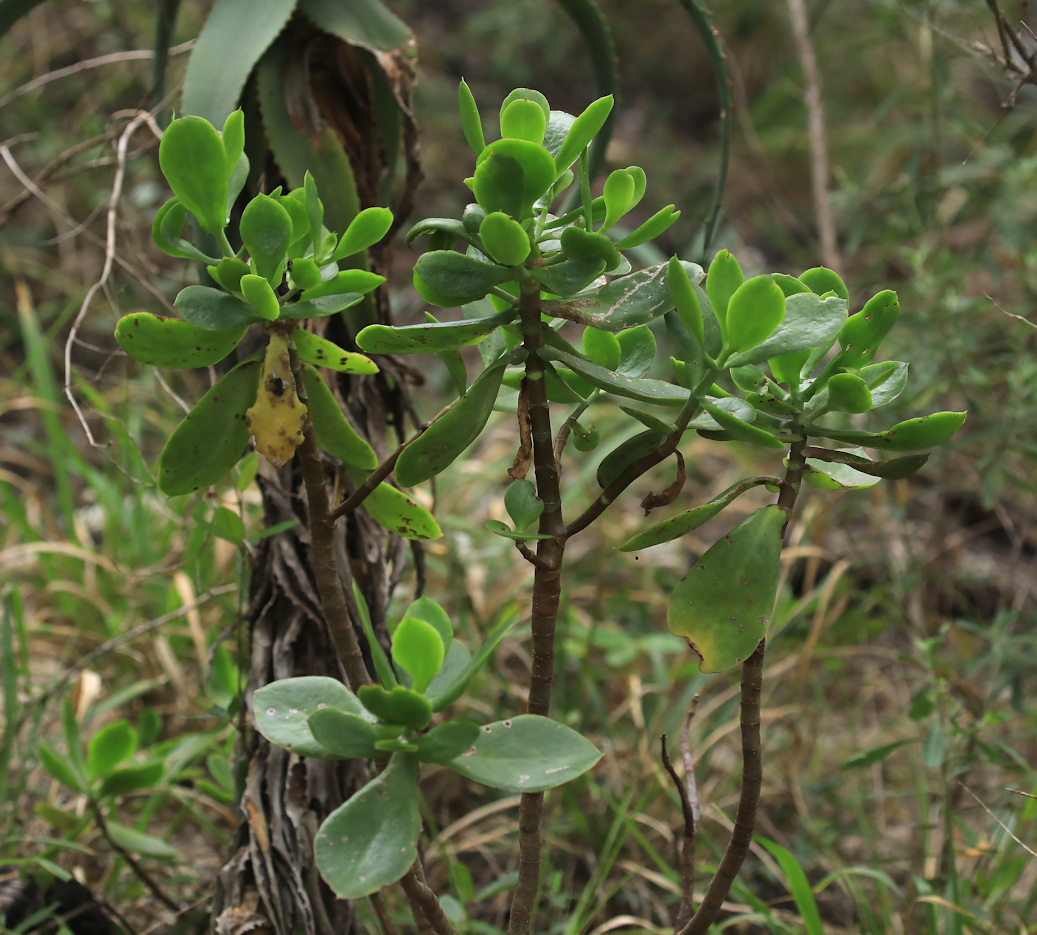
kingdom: Plantae
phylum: Tracheophyta
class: Magnoliopsida
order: Saxifragales
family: Crassulaceae
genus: Cotyledon
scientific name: Cotyledon velutina
